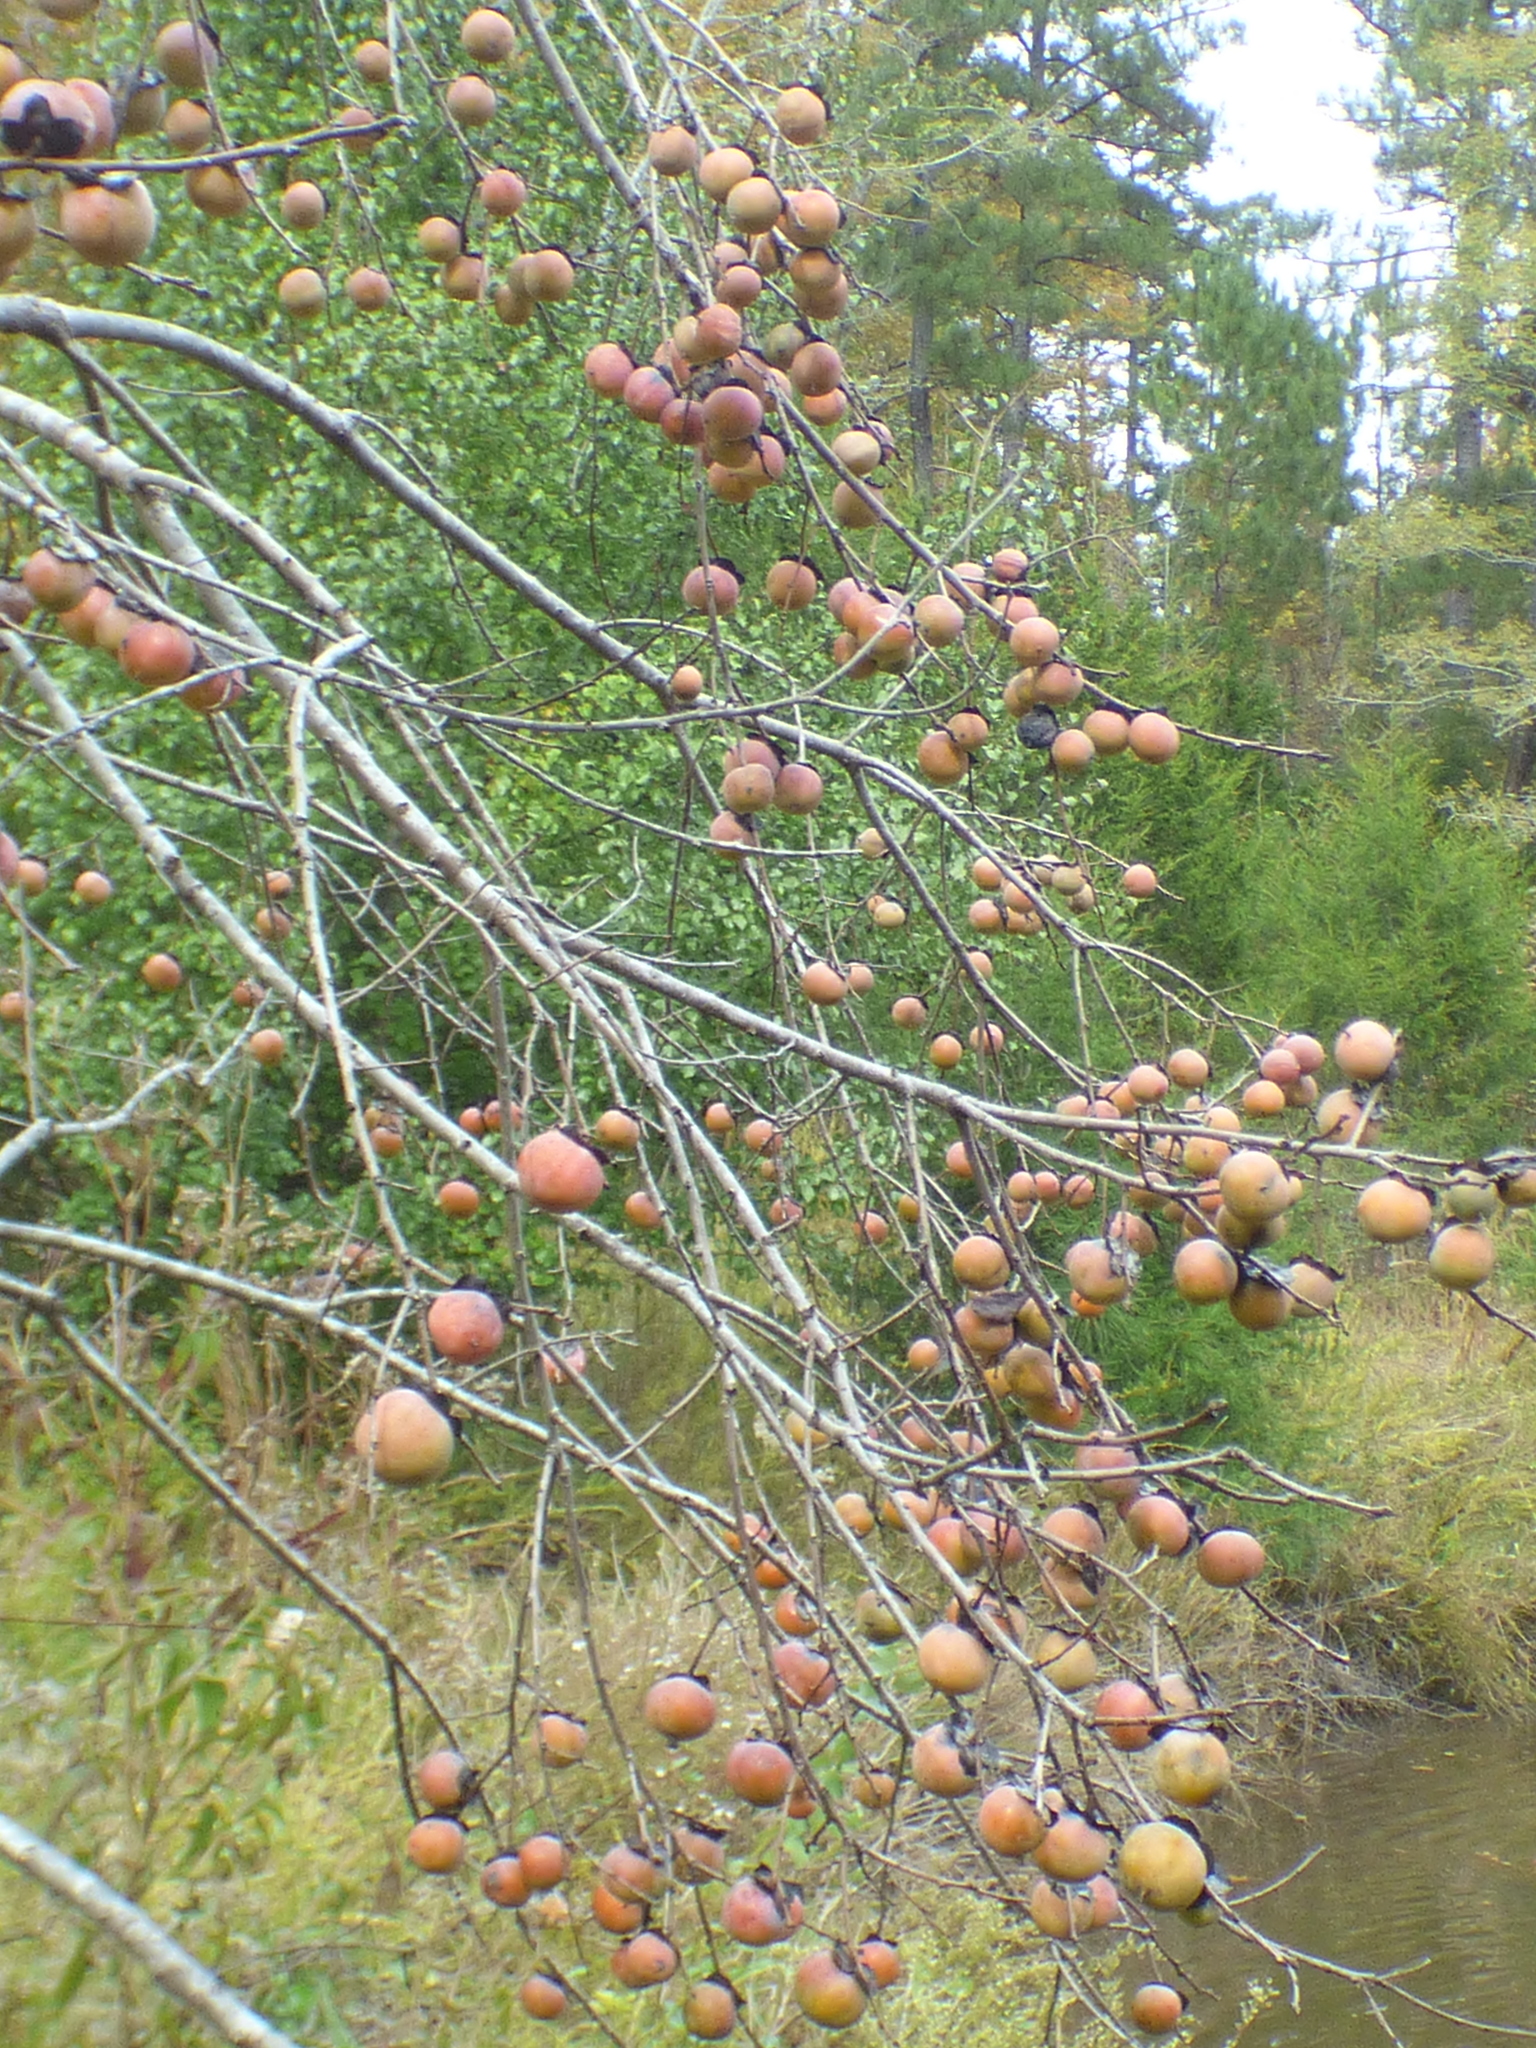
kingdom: Plantae
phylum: Tracheophyta
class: Magnoliopsida
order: Ericales
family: Ebenaceae
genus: Diospyros
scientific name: Diospyros virginiana
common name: Persimmon
